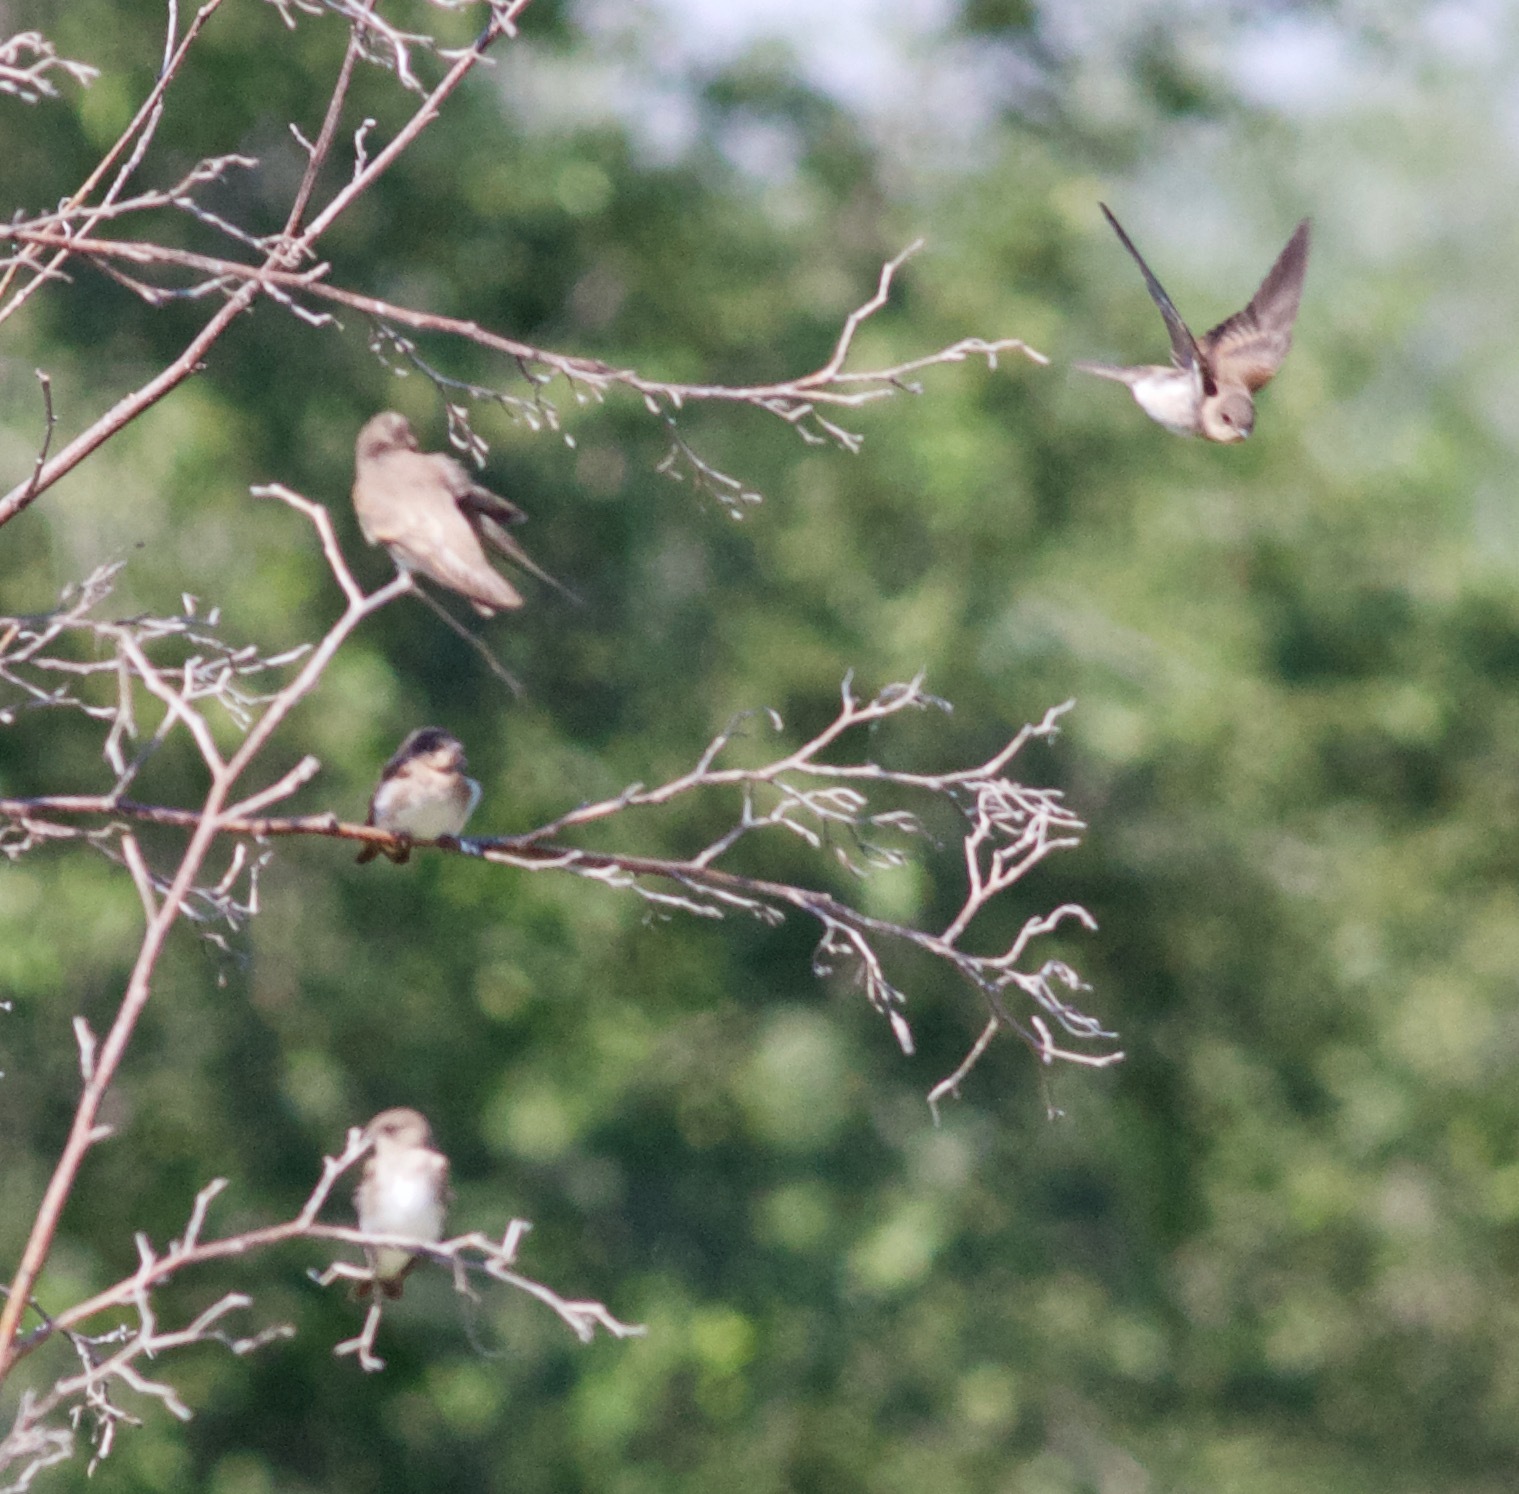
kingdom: Animalia
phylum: Chordata
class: Aves
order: Passeriformes
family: Hirundinidae
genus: Stelgidopteryx
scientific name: Stelgidopteryx serripennis
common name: Northern rough-winged swallow
